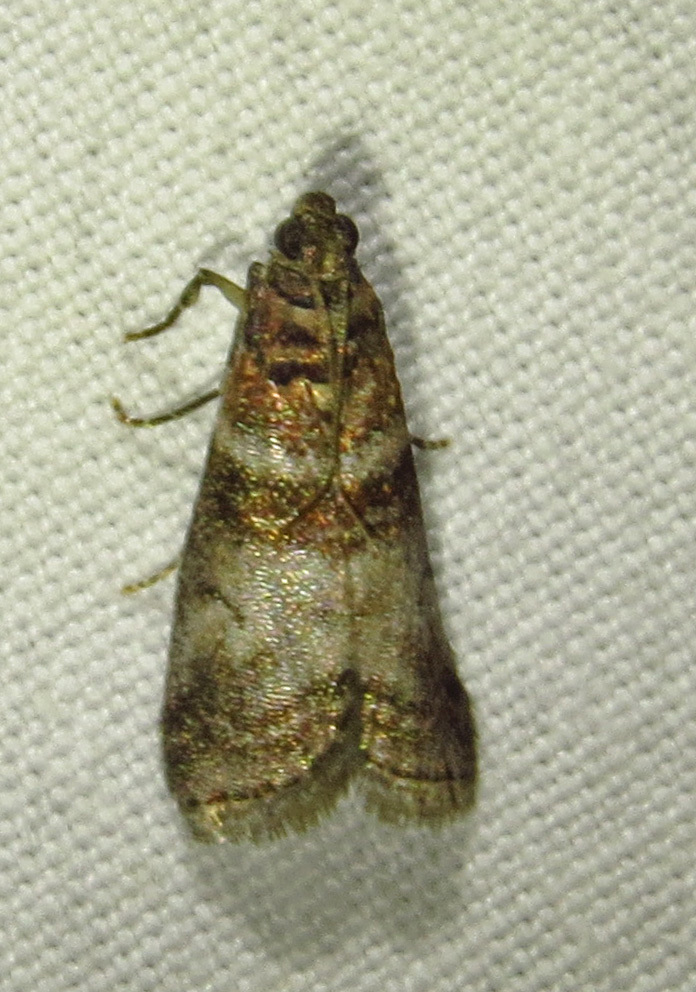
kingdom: Animalia
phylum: Arthropoda
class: Insecta
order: Lepidoptera
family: Pyralidae
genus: Sciota
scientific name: Sciota uvinella
